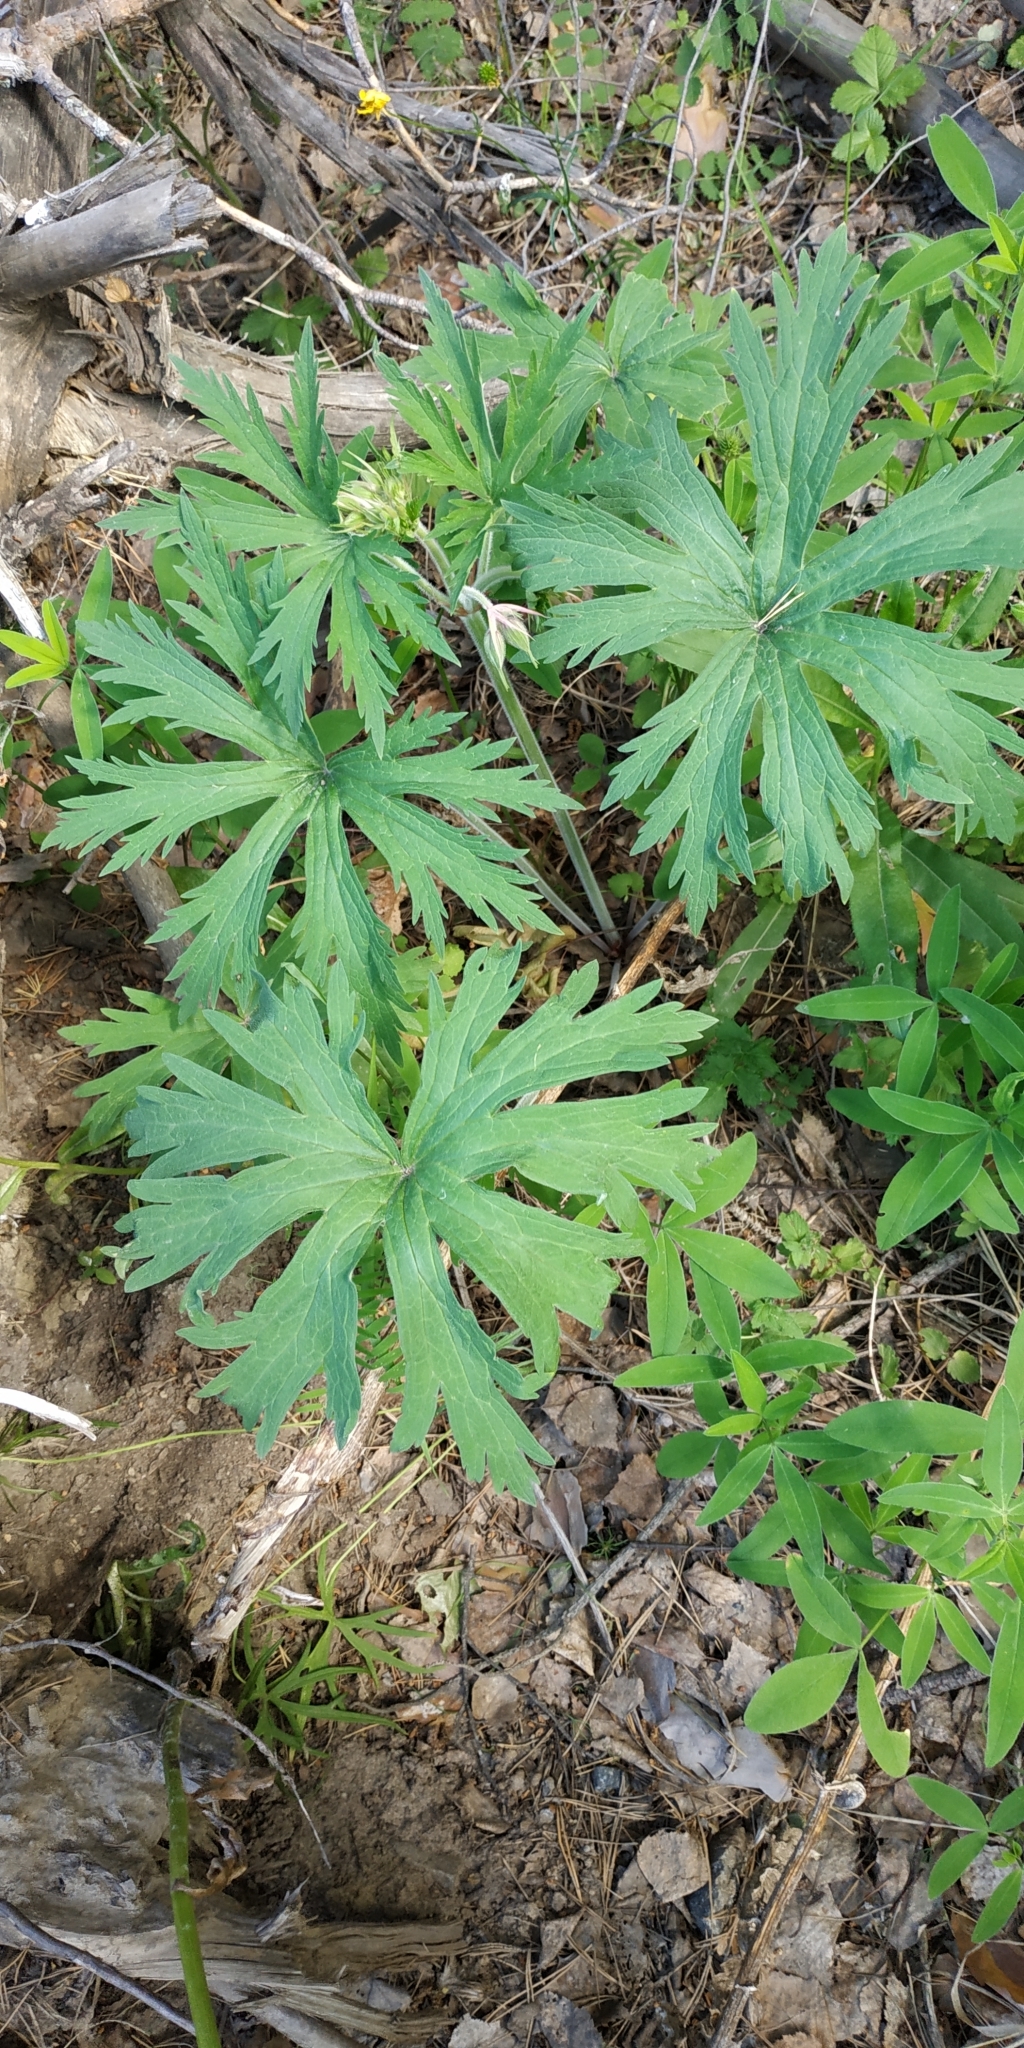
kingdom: Plantae
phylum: Tracheophyta
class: Magnoliopsida
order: Geraniales
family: Geraniaceae
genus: Geranium
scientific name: Geranium pratense
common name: Meadow crane's-bill
